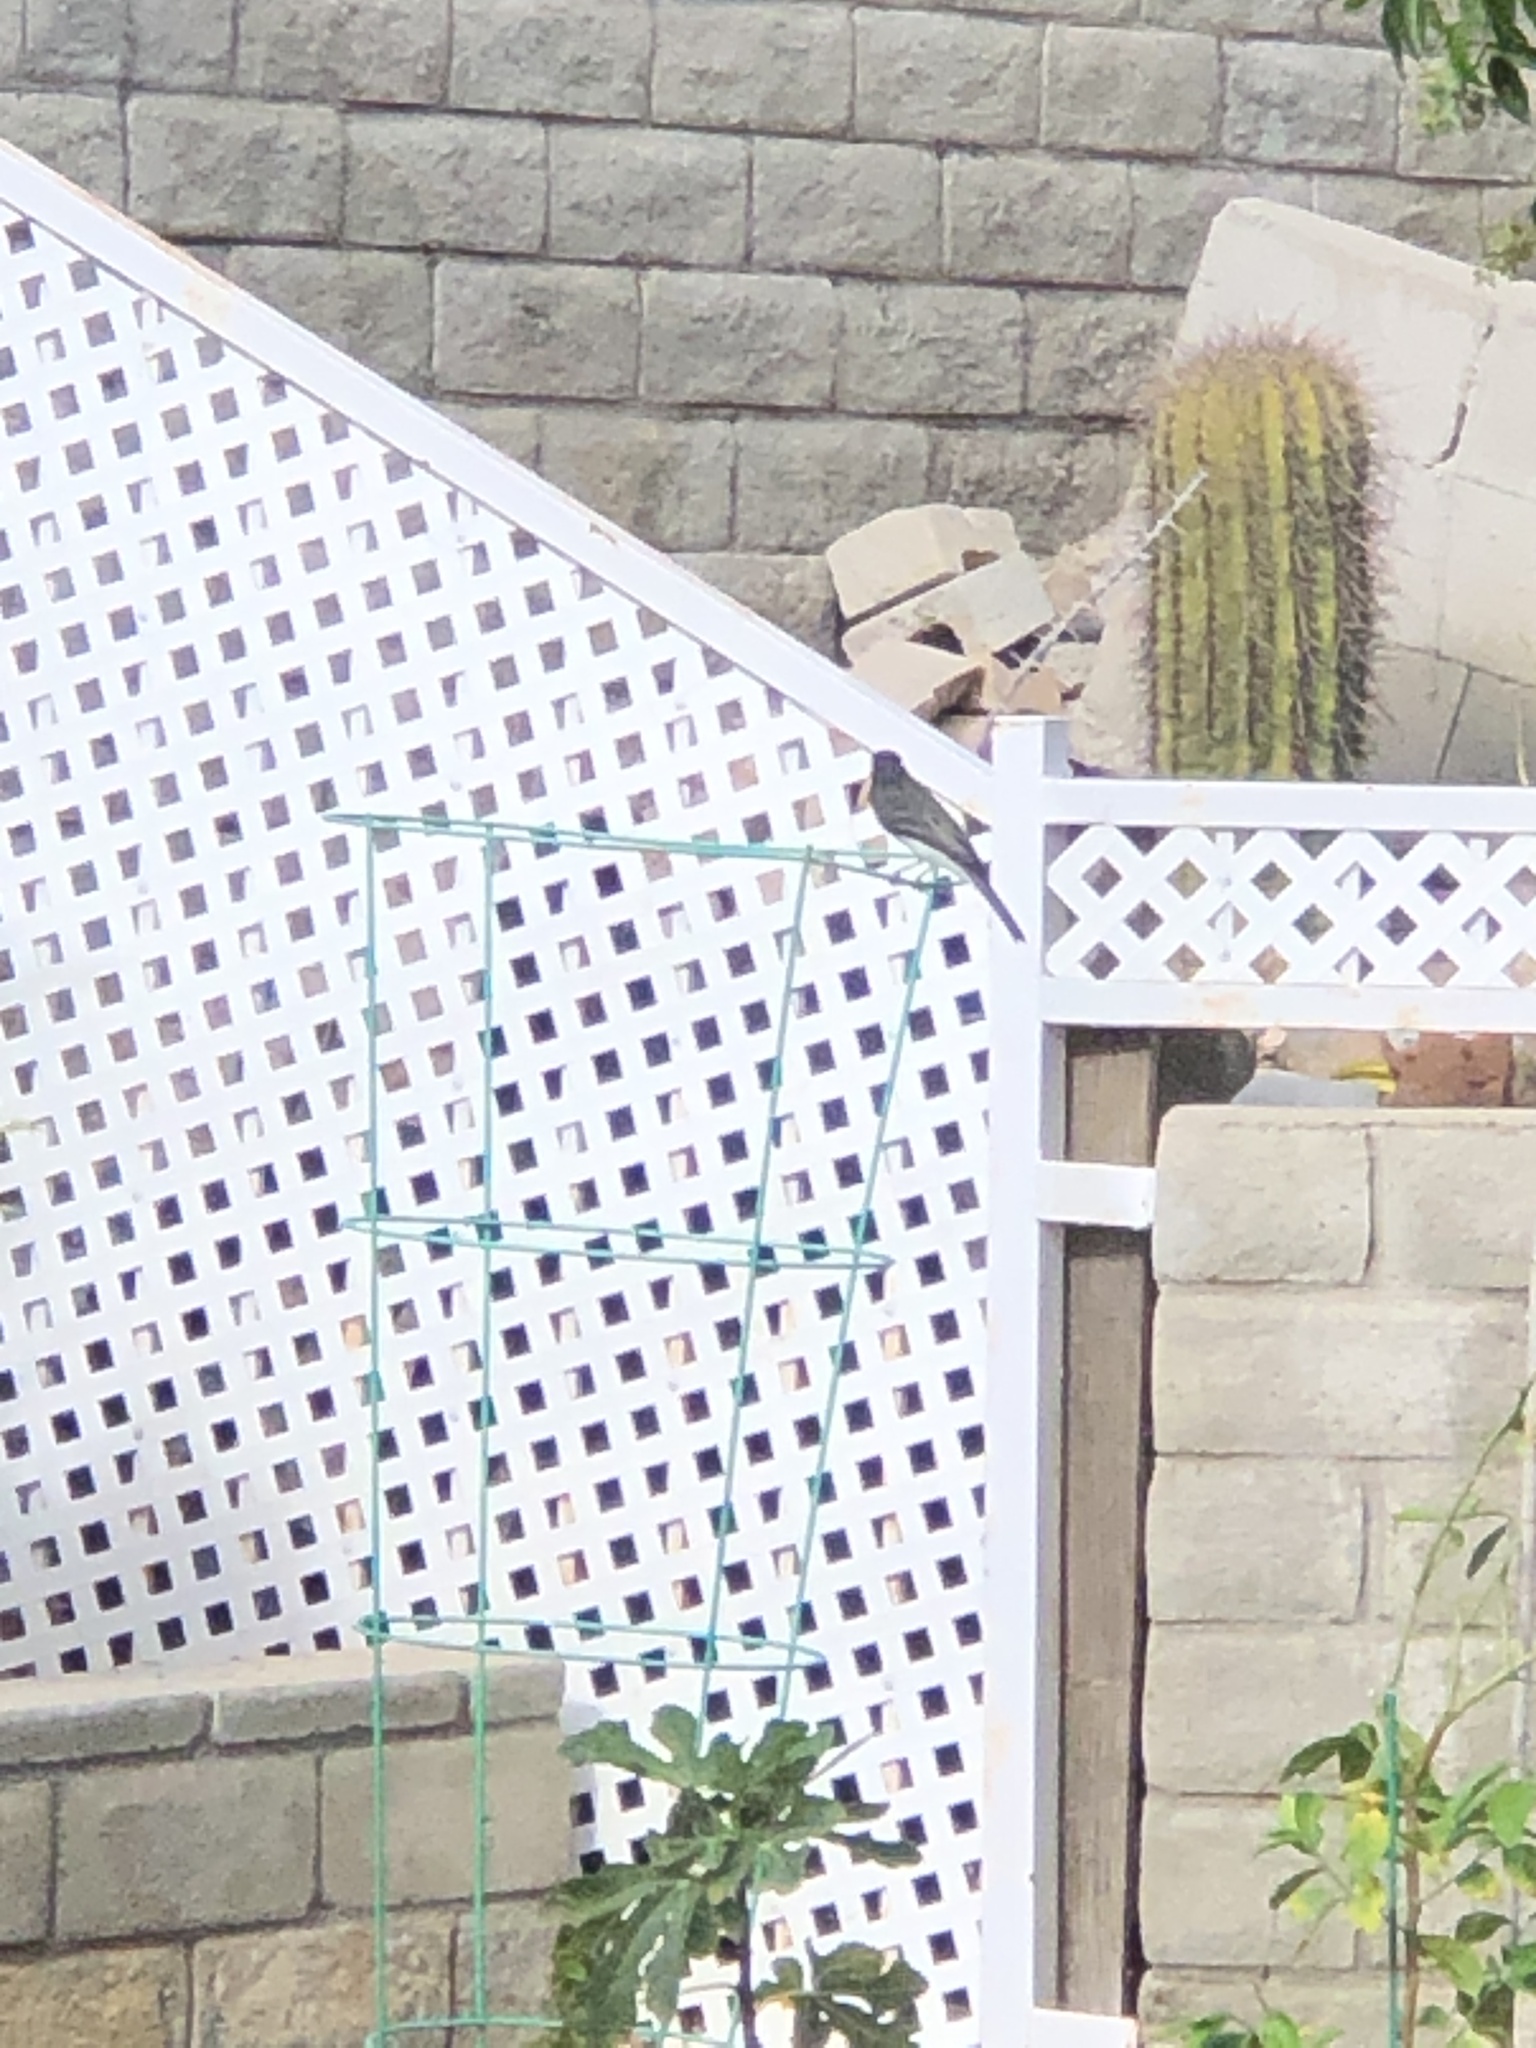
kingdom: Animalia
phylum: Chordata
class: Aves
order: Passeriformes
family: Tyrannidae
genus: Sayornis
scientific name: Sayornis nigricans
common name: Black phoebe
